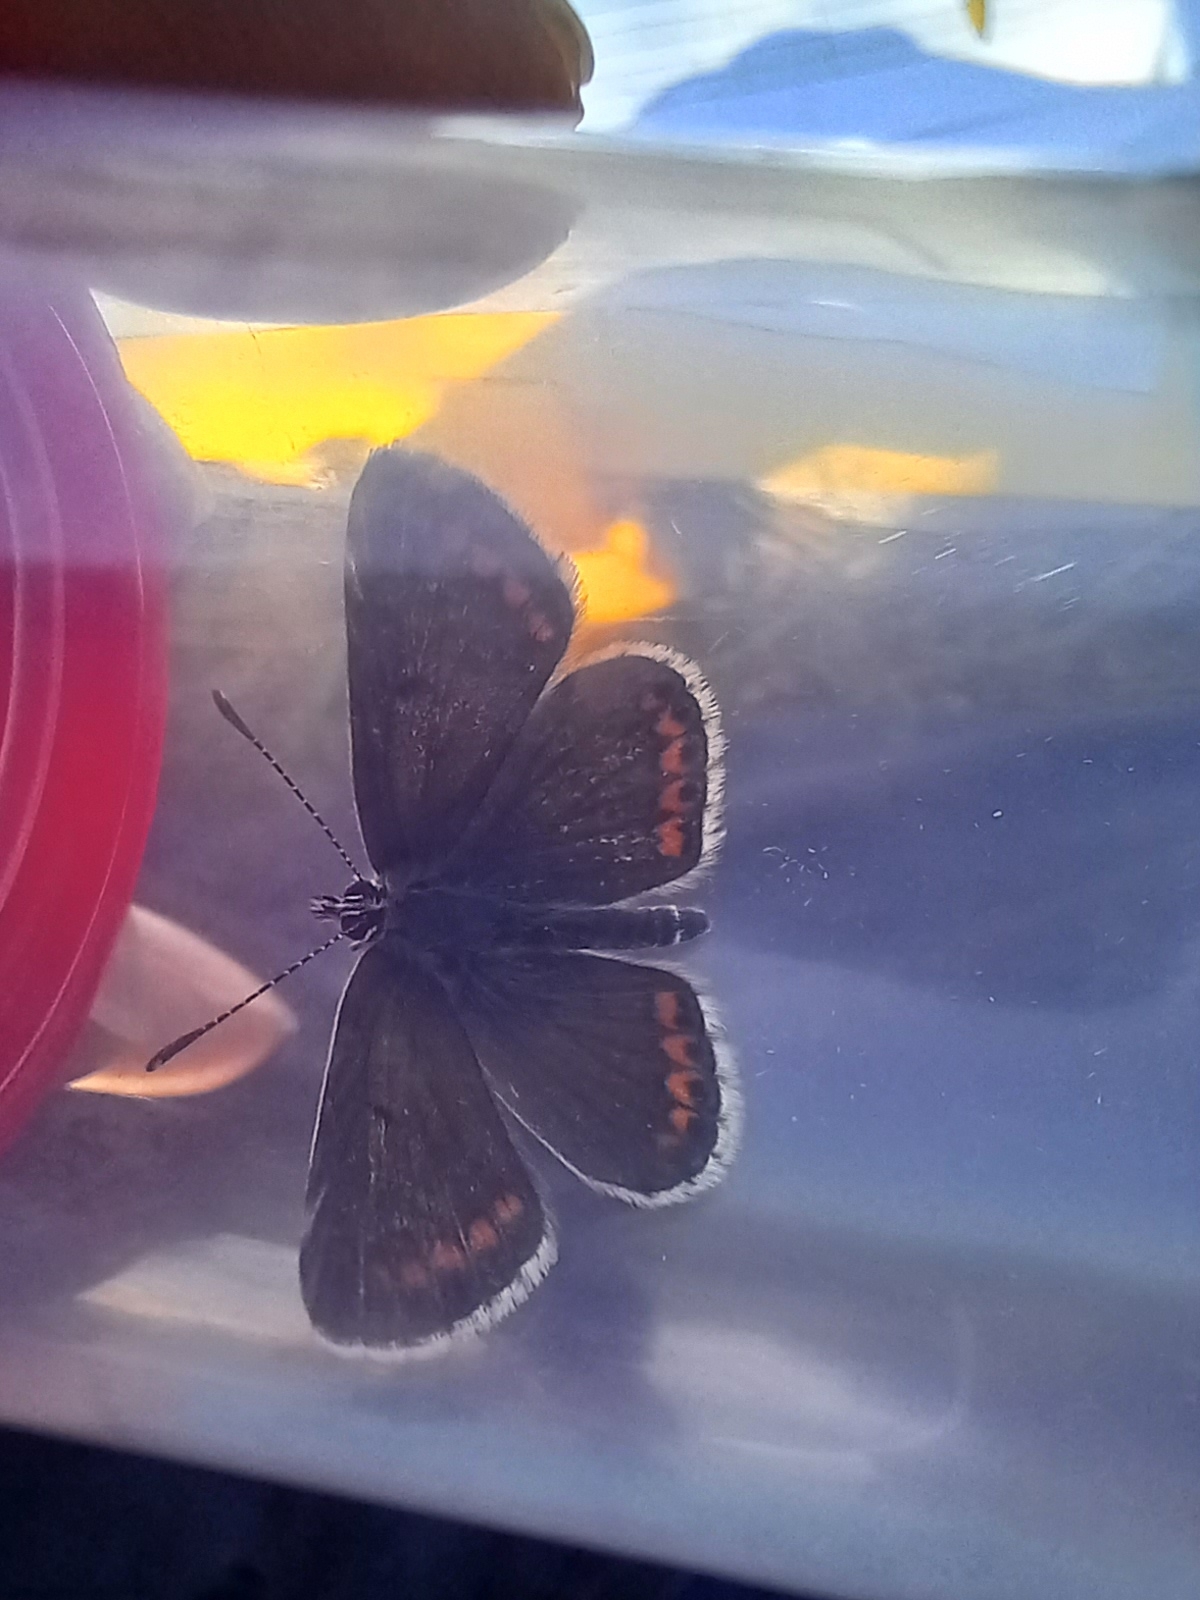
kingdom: Animalia
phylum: Arthropoda
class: Insecta
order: Lepidoptera
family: Lycaenidae
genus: Aricia
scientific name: Aricia agestis
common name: Brown argus
